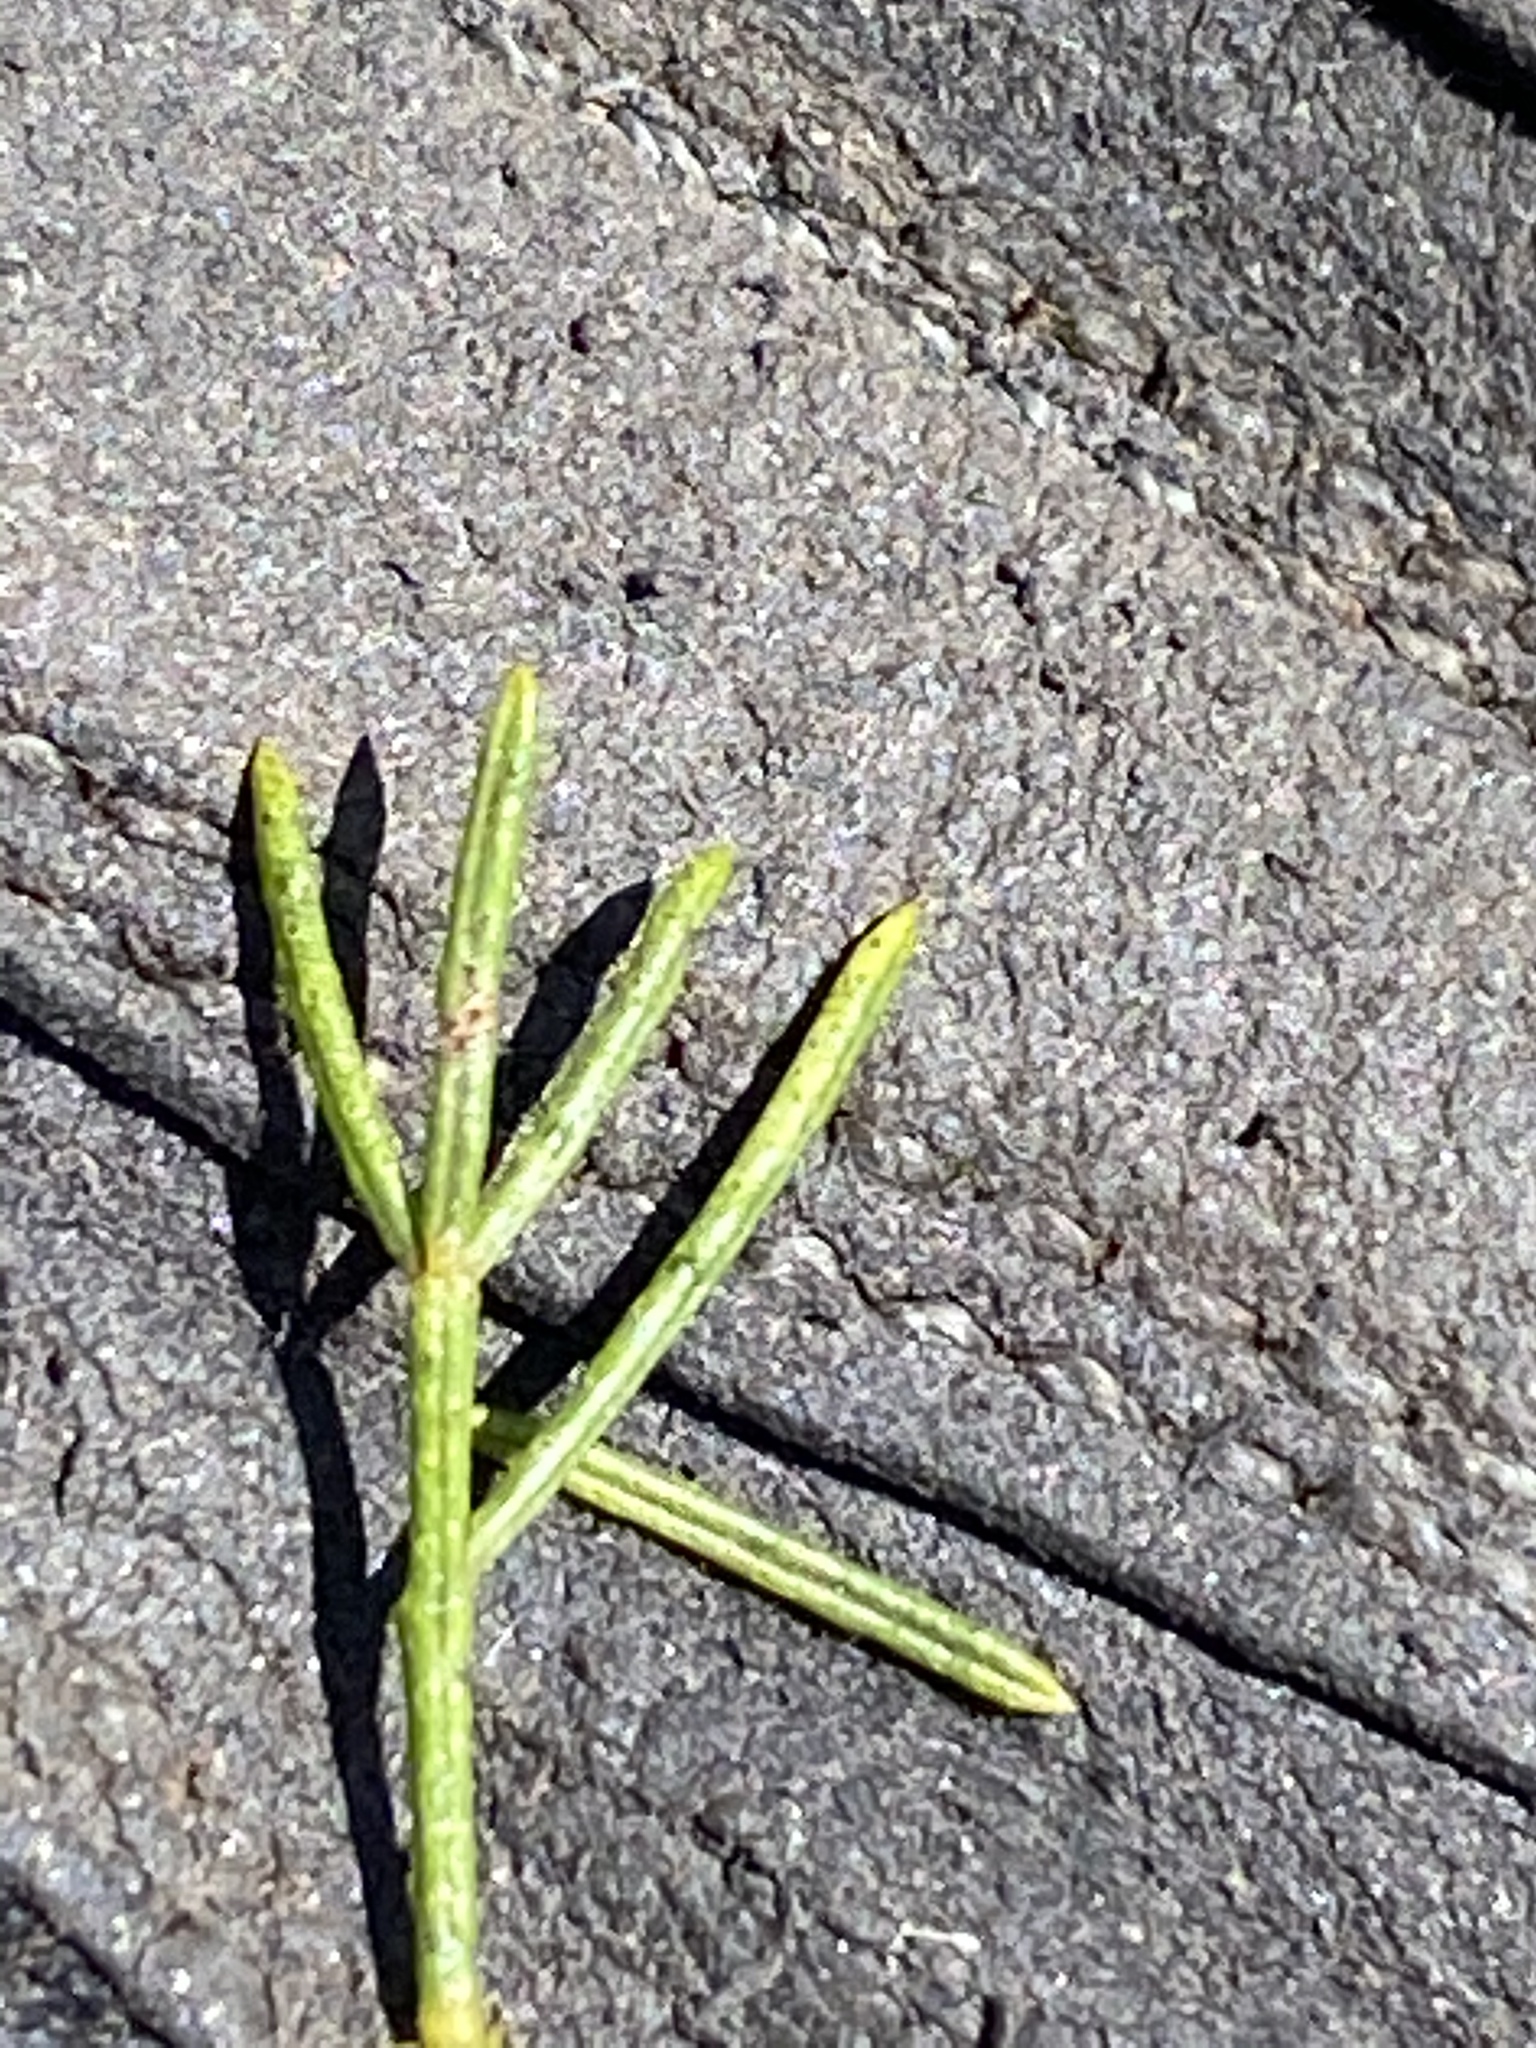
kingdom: Plantae
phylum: Tracheophyta
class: Magnoliopsida
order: Fabales
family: Fabaceae
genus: Psoralea
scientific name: Psoralea speciosa
